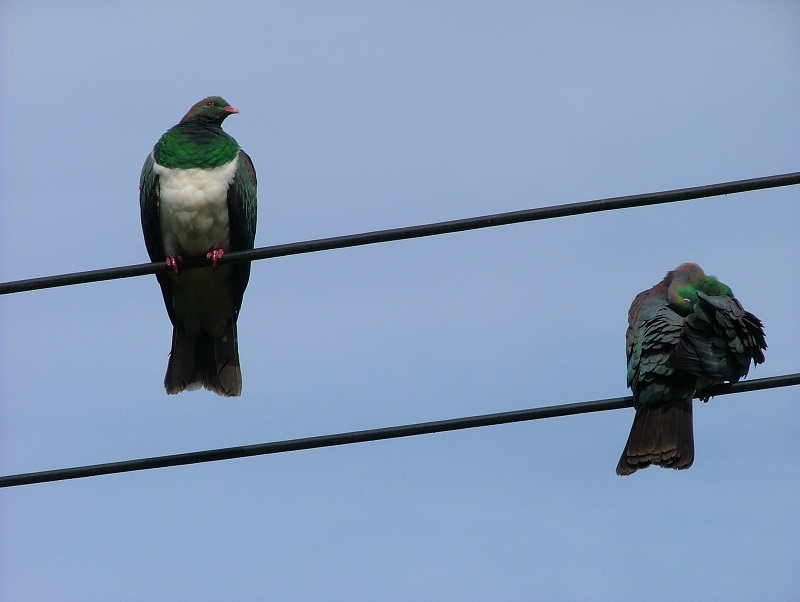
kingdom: Animalia
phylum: Chordata
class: Aves
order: Columbiformes
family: Columbidae
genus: Hemiphaga
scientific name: Hemiphaga novaeseelandiae
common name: New zealand pigeon
